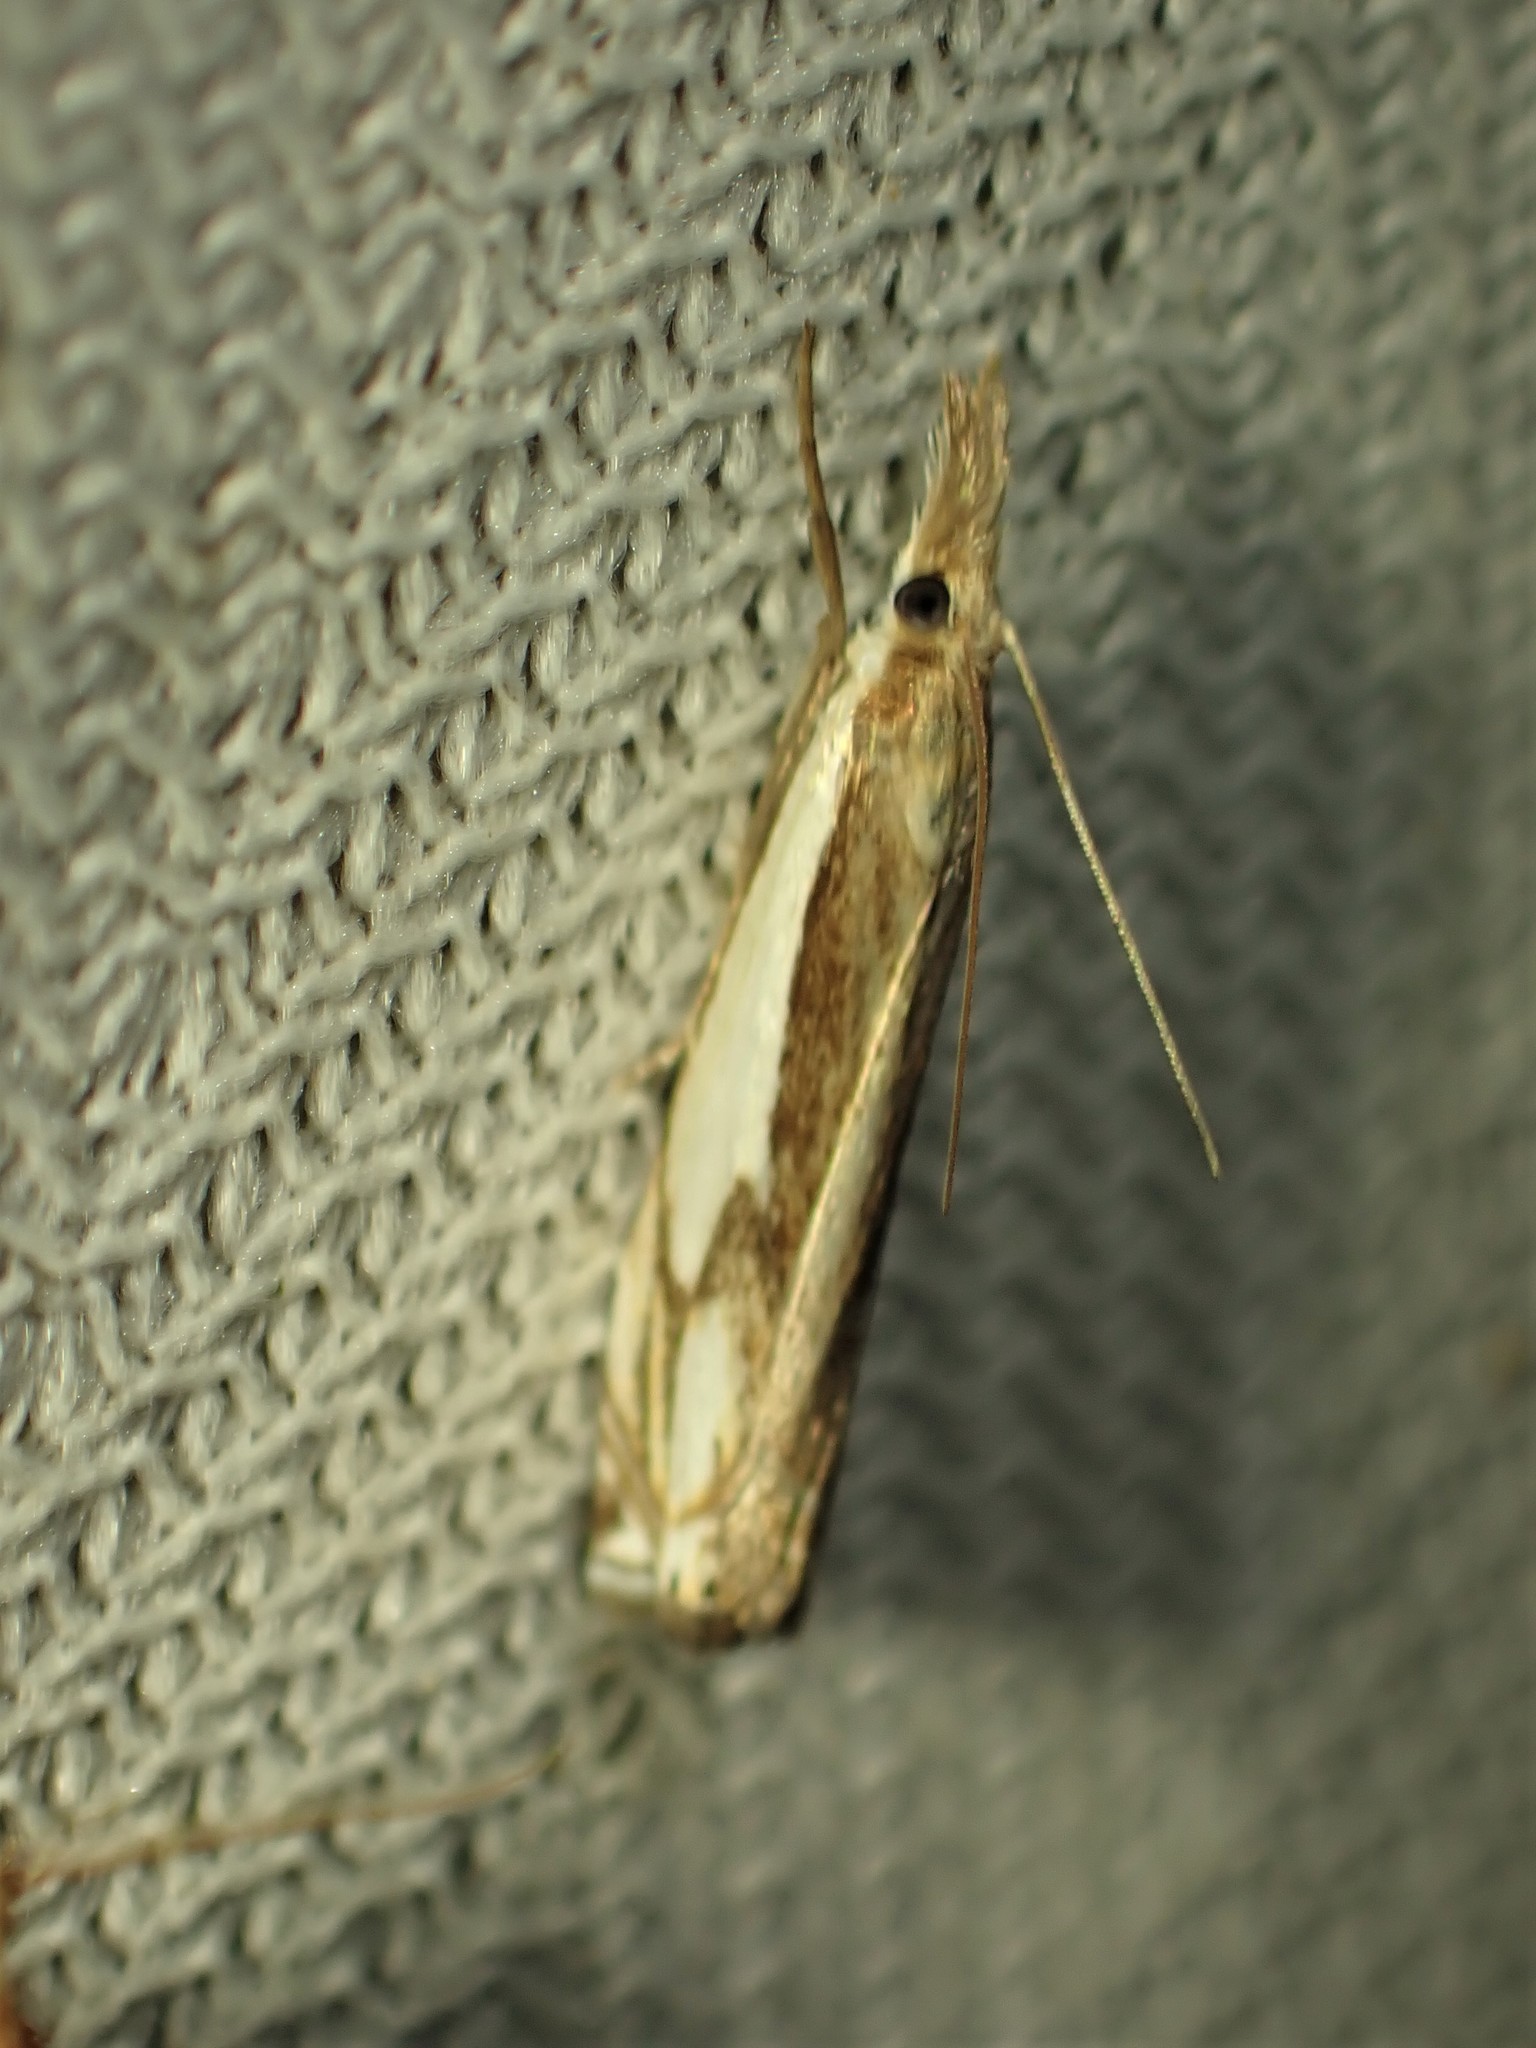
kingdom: Animalia
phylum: Arthropoda
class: Insecta
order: Lepidoptera
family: Crambidae
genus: Crambus
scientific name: Crambus agitatellus
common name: Double-banded grass-veneer
